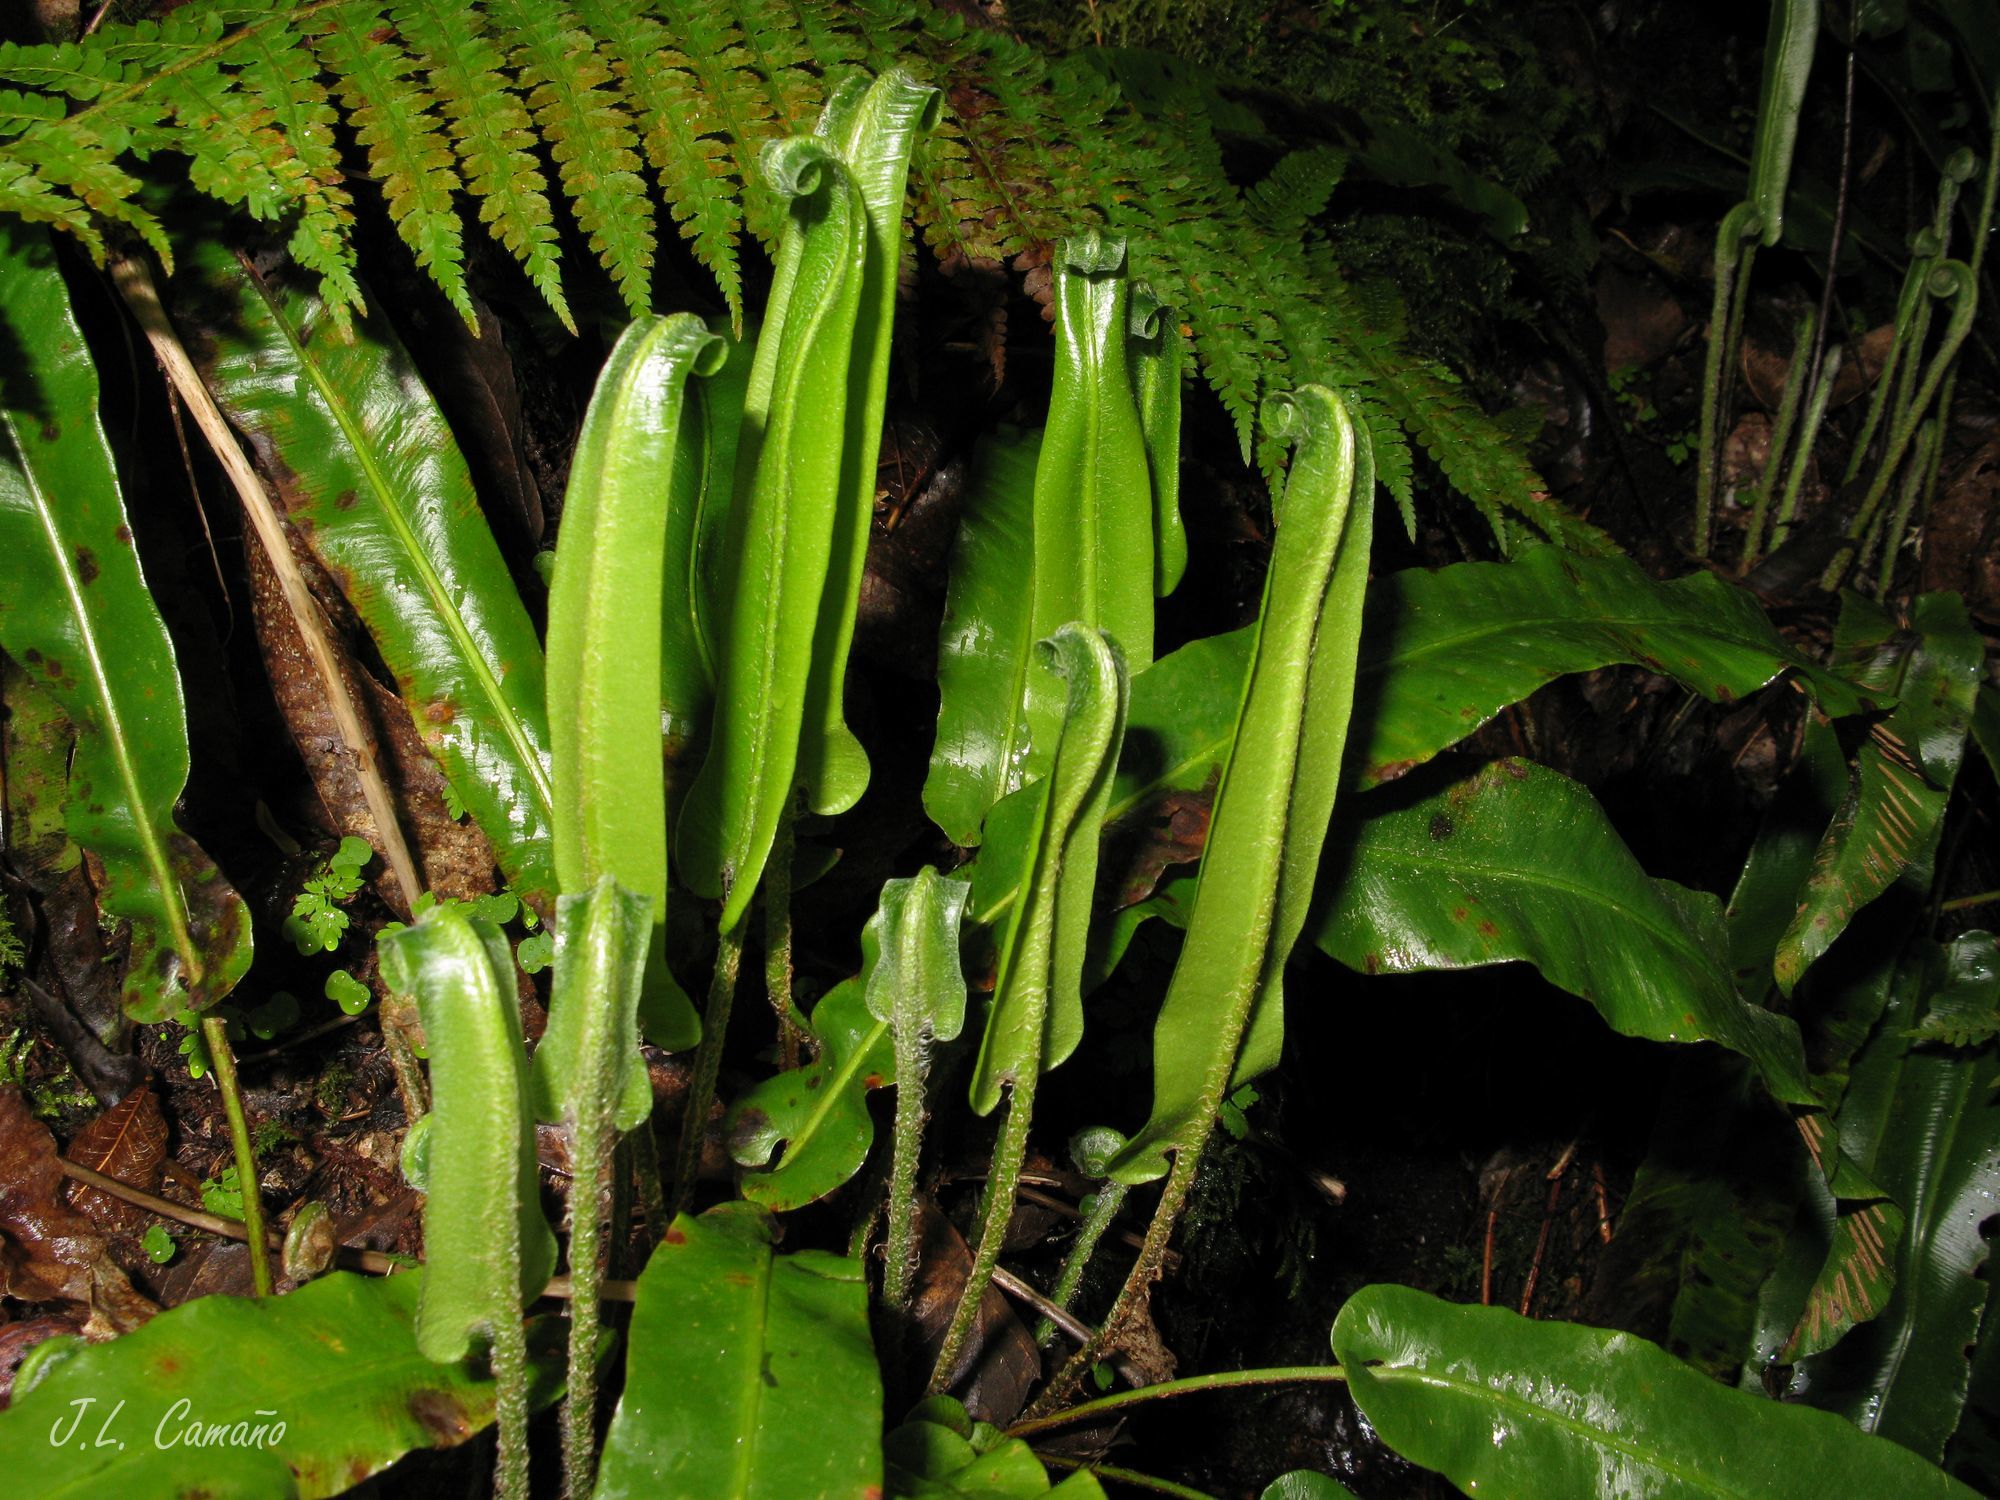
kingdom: Plantae
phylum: Tracheophyta
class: Polypodiopsida
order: Polypodiales
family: Aspleniaceae
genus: Asplenium
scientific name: Asplenium scolopendrium
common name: Hart's-tongue fern
